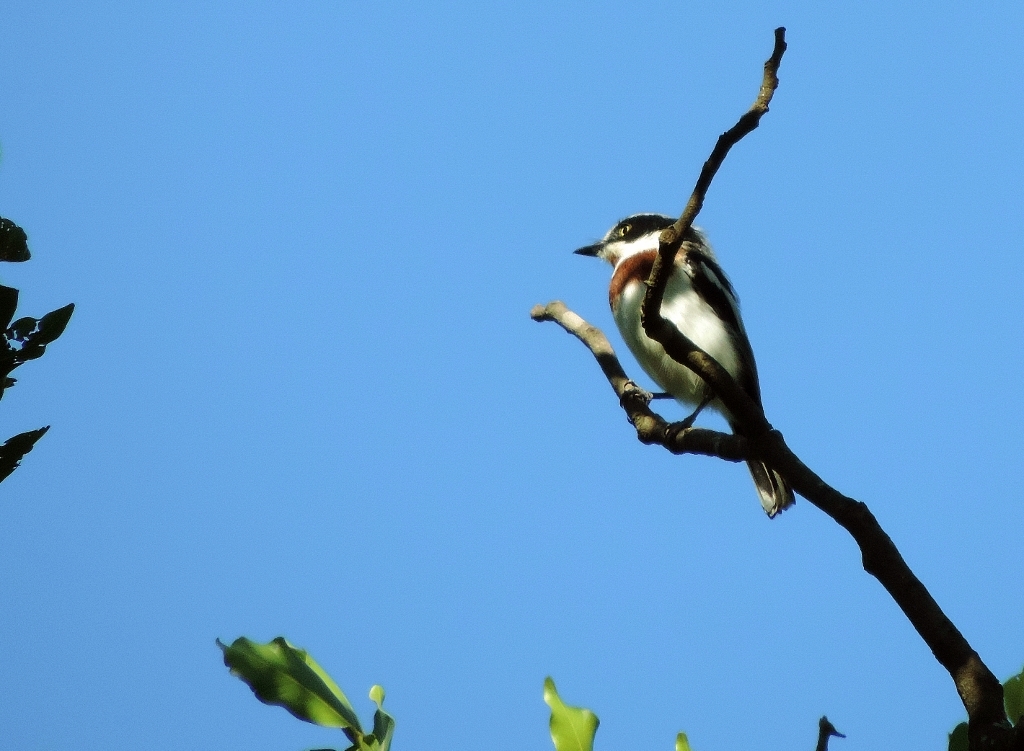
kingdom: Animalia
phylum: Chordata
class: Aves
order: Passeriformes
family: Platysteiridae
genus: Batis
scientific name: Batis molitor
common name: Chinspot batis
